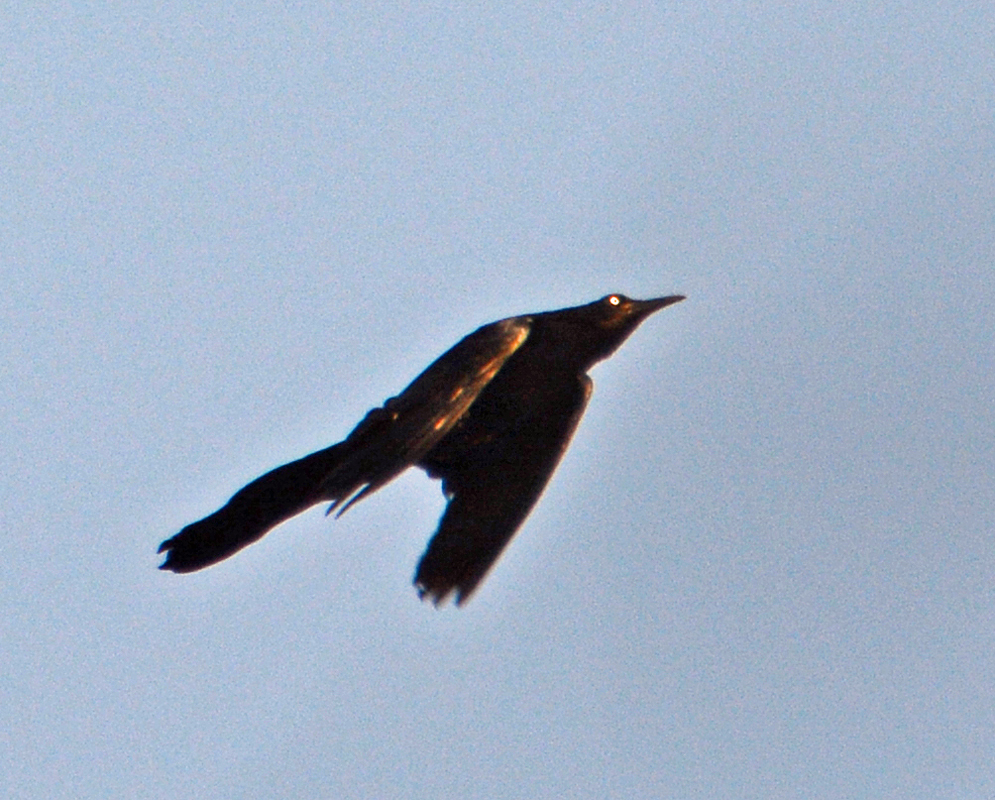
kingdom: Animalia
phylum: Chordata
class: Aves
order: Passeriformes
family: Icteridae
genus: Quiscalus
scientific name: Quiscalus mexicanus
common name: Great-tailed grackle
